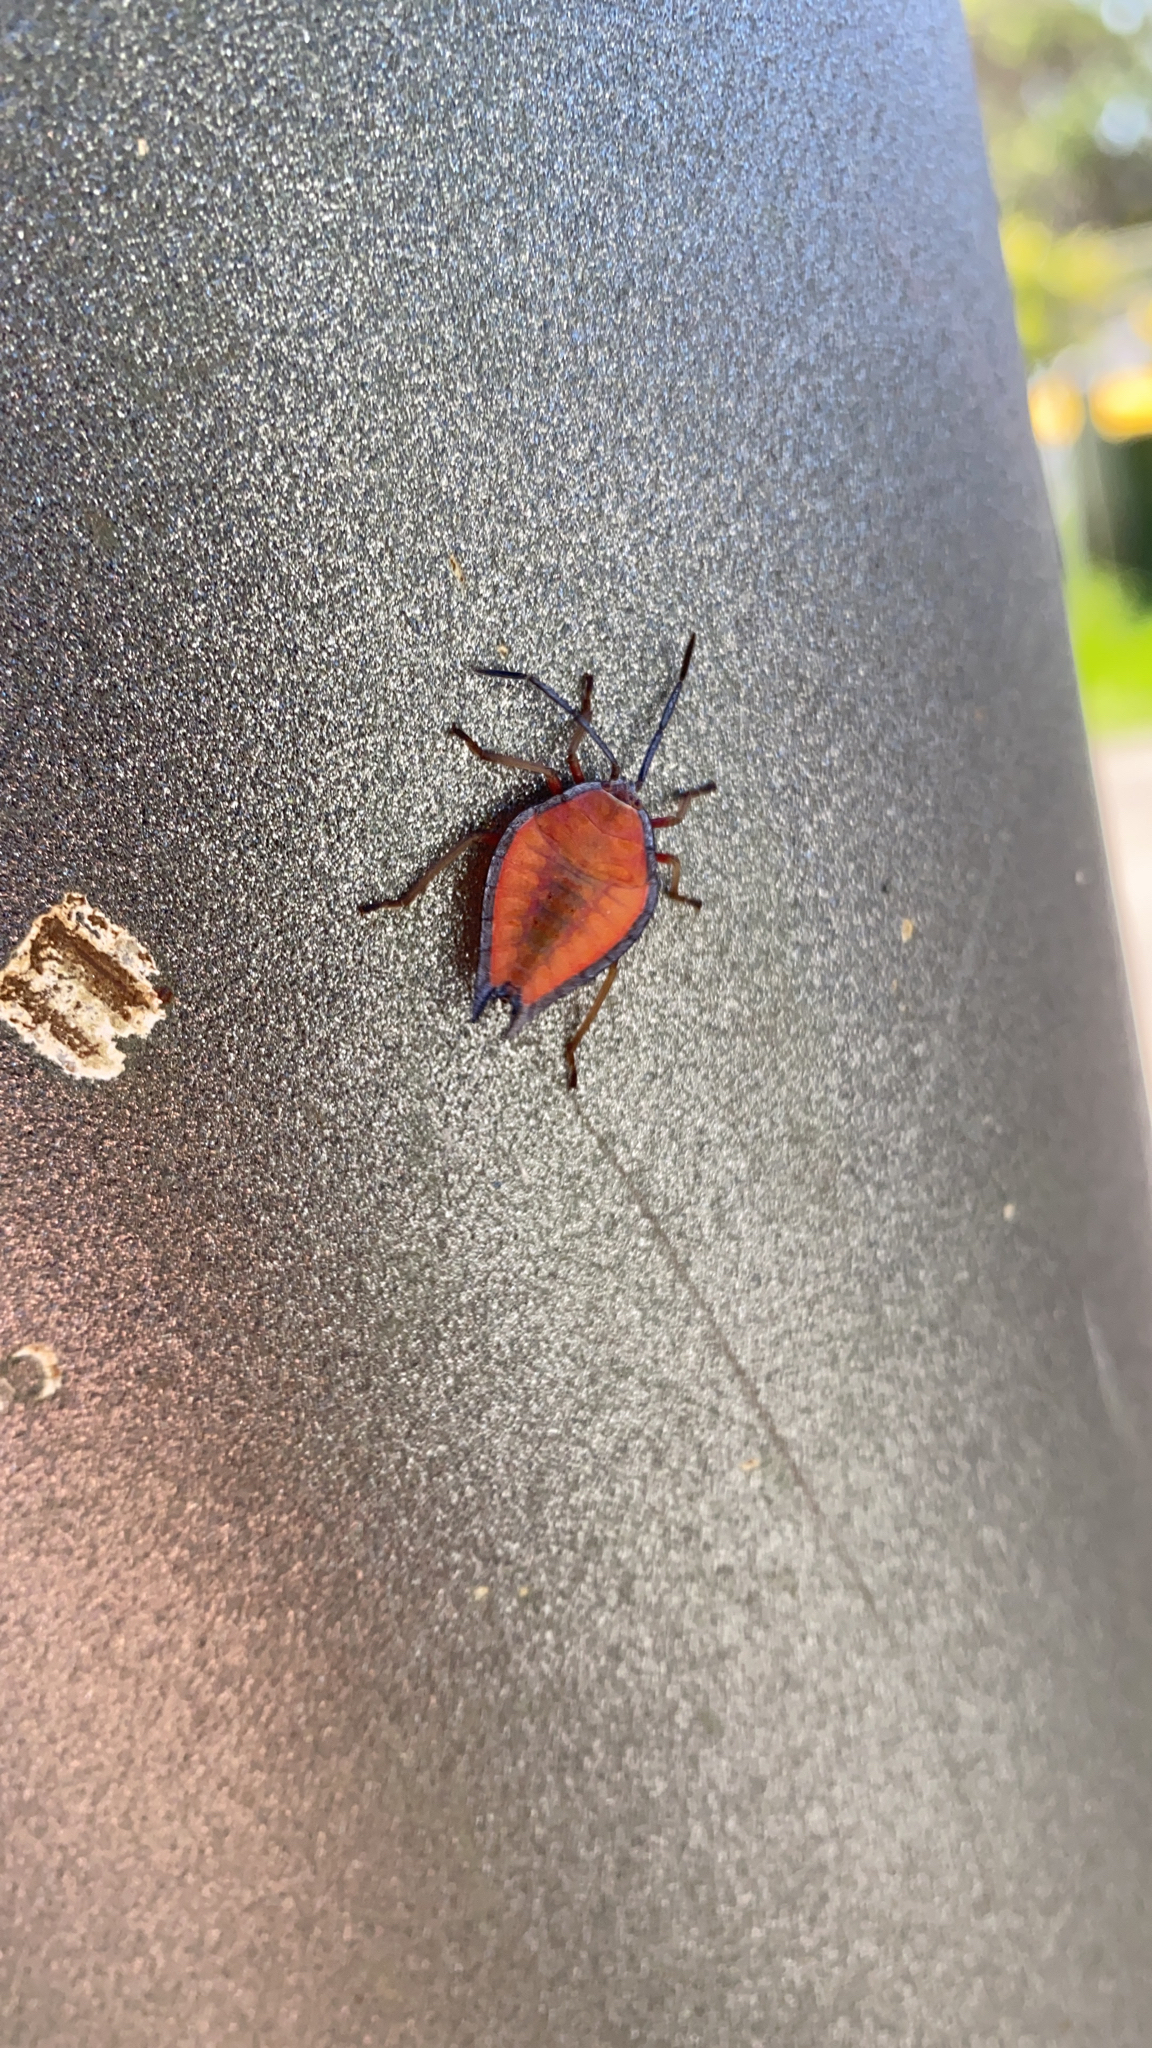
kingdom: Animalia
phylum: Arthropoda
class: Insecta
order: Hemiptera
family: Tessaratomidae
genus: Lyramorpha
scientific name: Lyramorpha rosea
